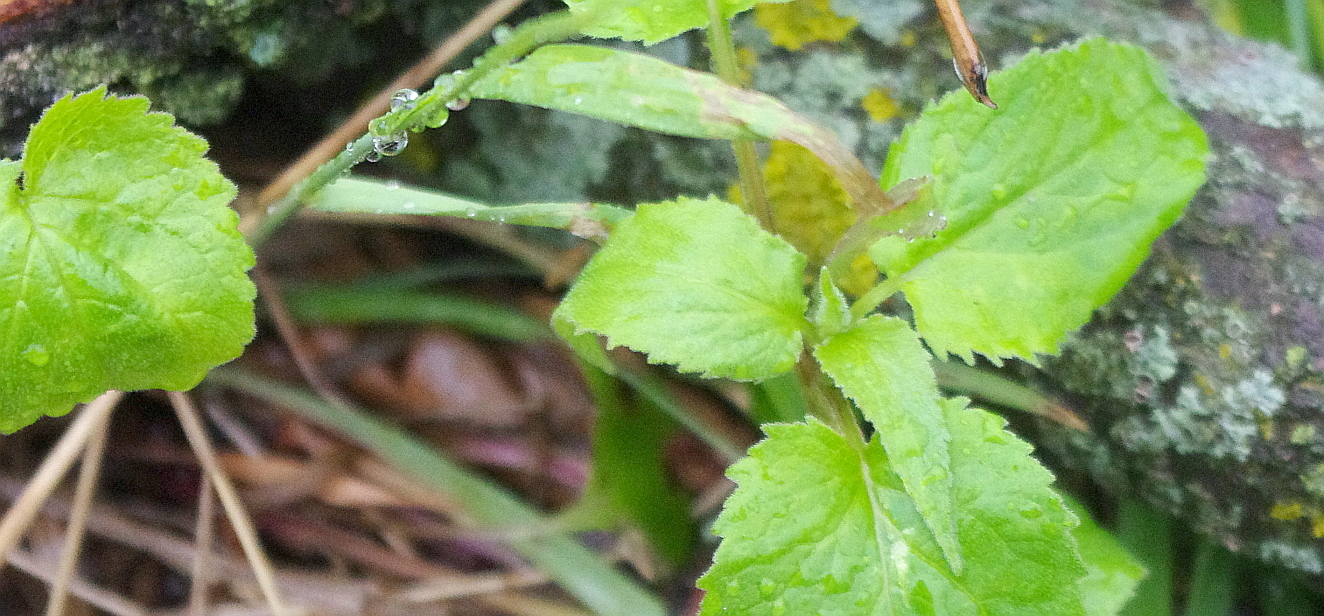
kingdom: Plantae
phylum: Tracheophyta
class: Magnoliopsida
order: Malpighiales
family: Salicaceae
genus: Populus
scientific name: Populus tremula
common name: European aspen
